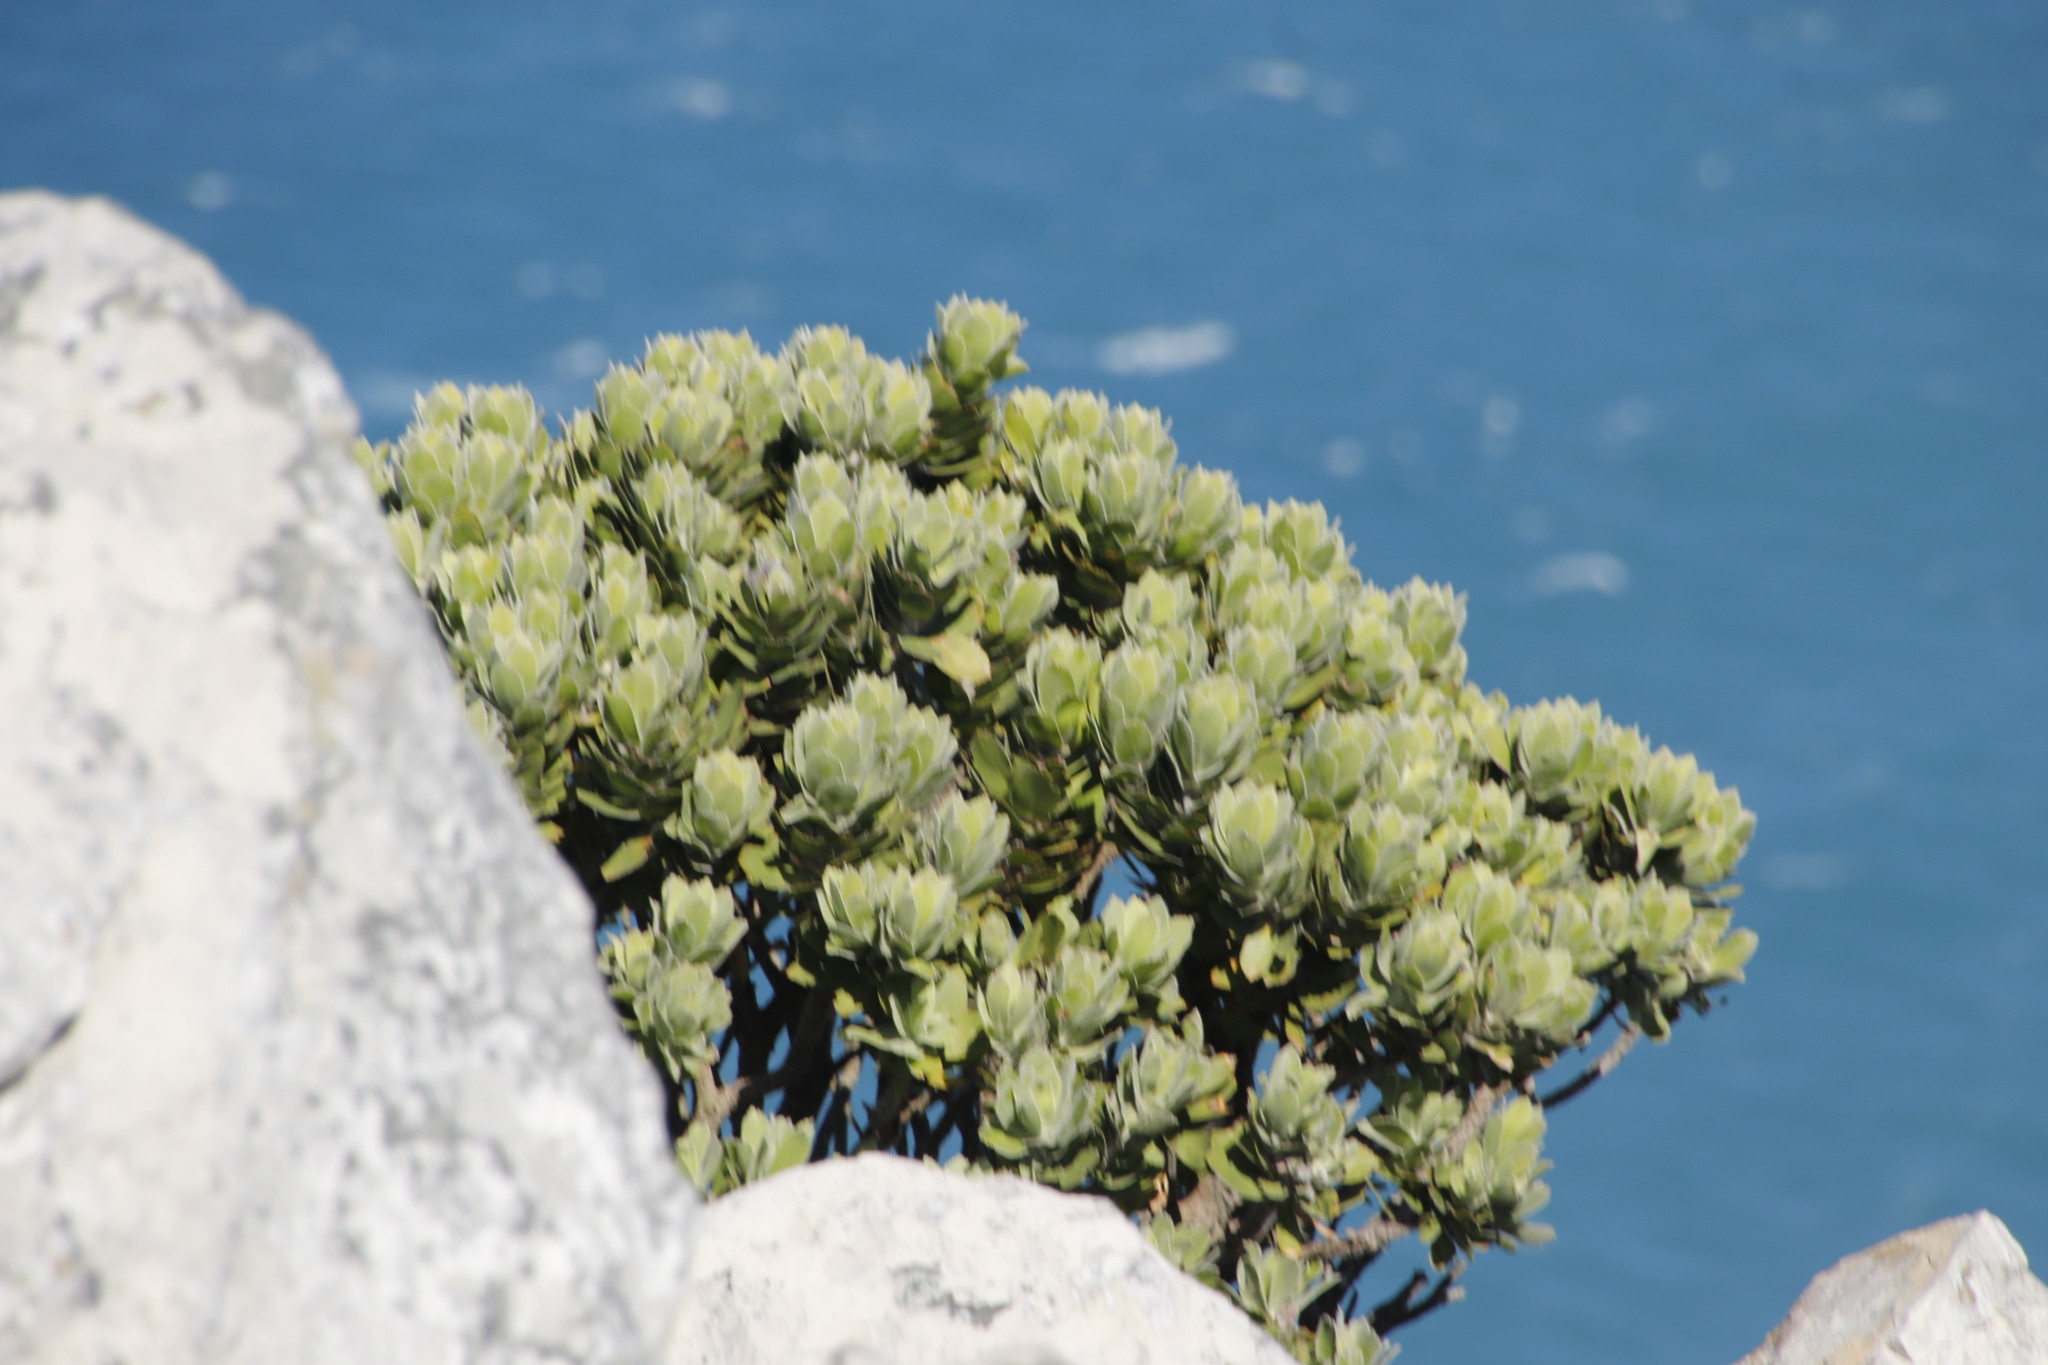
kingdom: Plantae
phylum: Tracheophyta
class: Magnoliopsida
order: Proteales
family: Proteaceae
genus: Leucospermum
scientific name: Leucospermum conocarpodendron
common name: Tree pincushion
